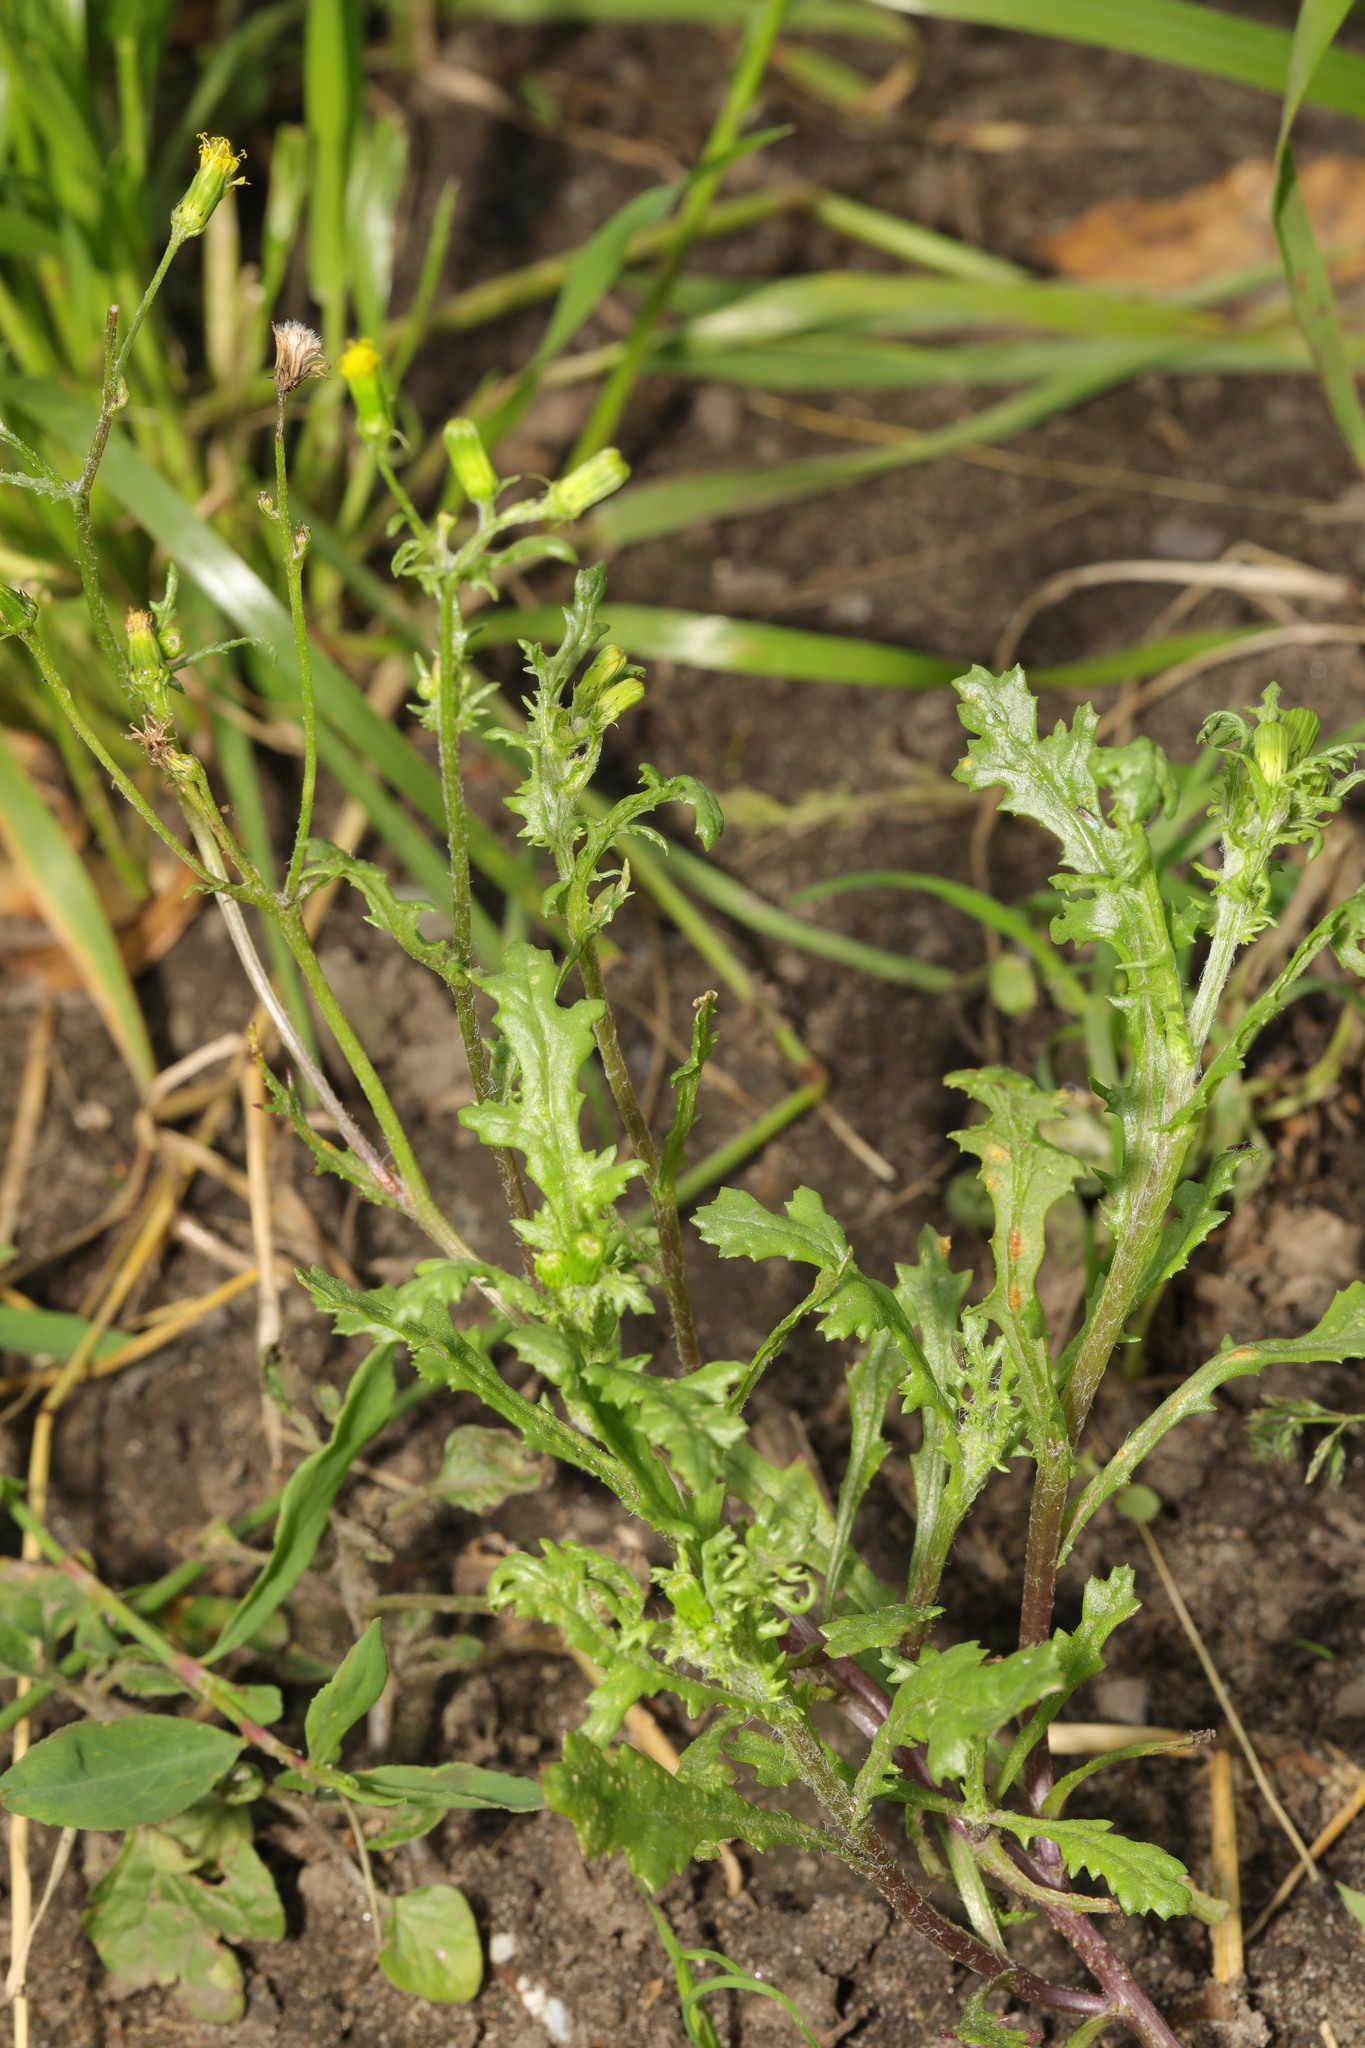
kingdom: Plantae
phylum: Tracheophyta
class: Magnoliopsida
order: Asterales
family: Asteraceae
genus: Senecio
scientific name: Senecio vulgaris
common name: Old-man-in-the-spring
